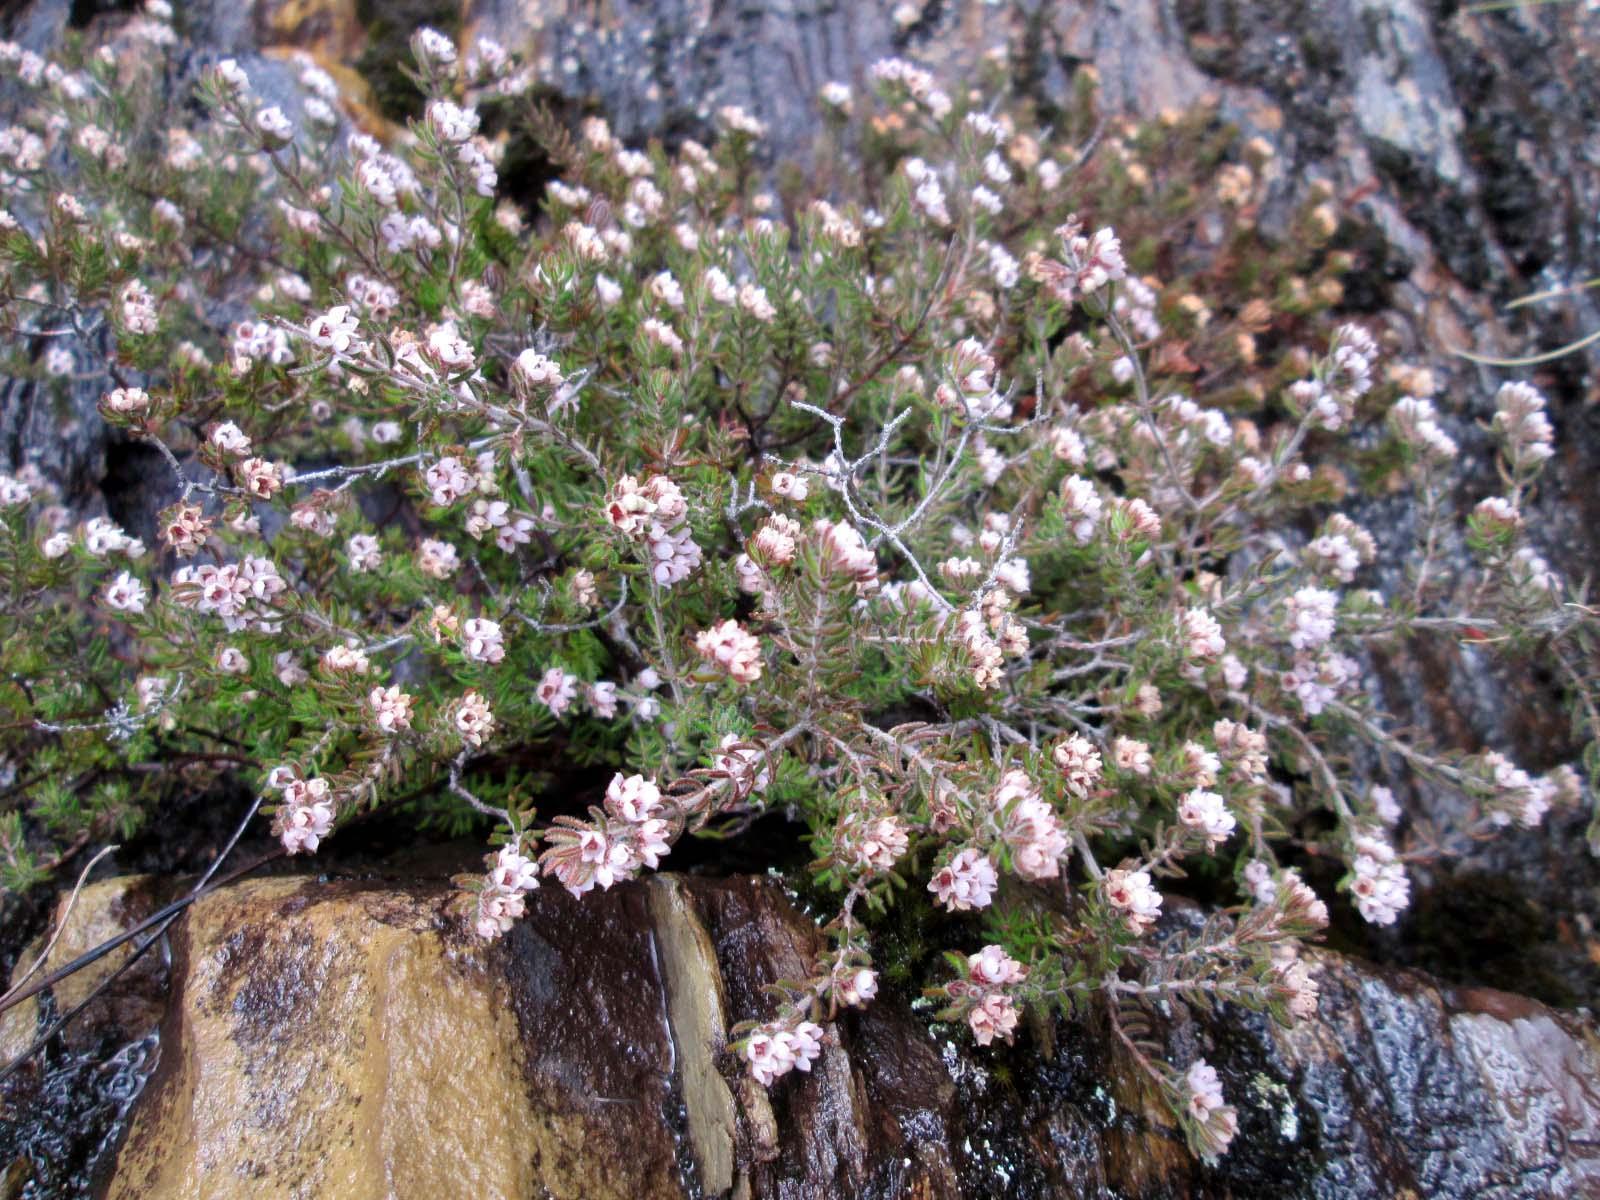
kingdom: Plantae
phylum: Tracheophyta
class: Magnoliopsida
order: Ericales
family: Ericaceae
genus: Erica
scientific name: Erica distorta
